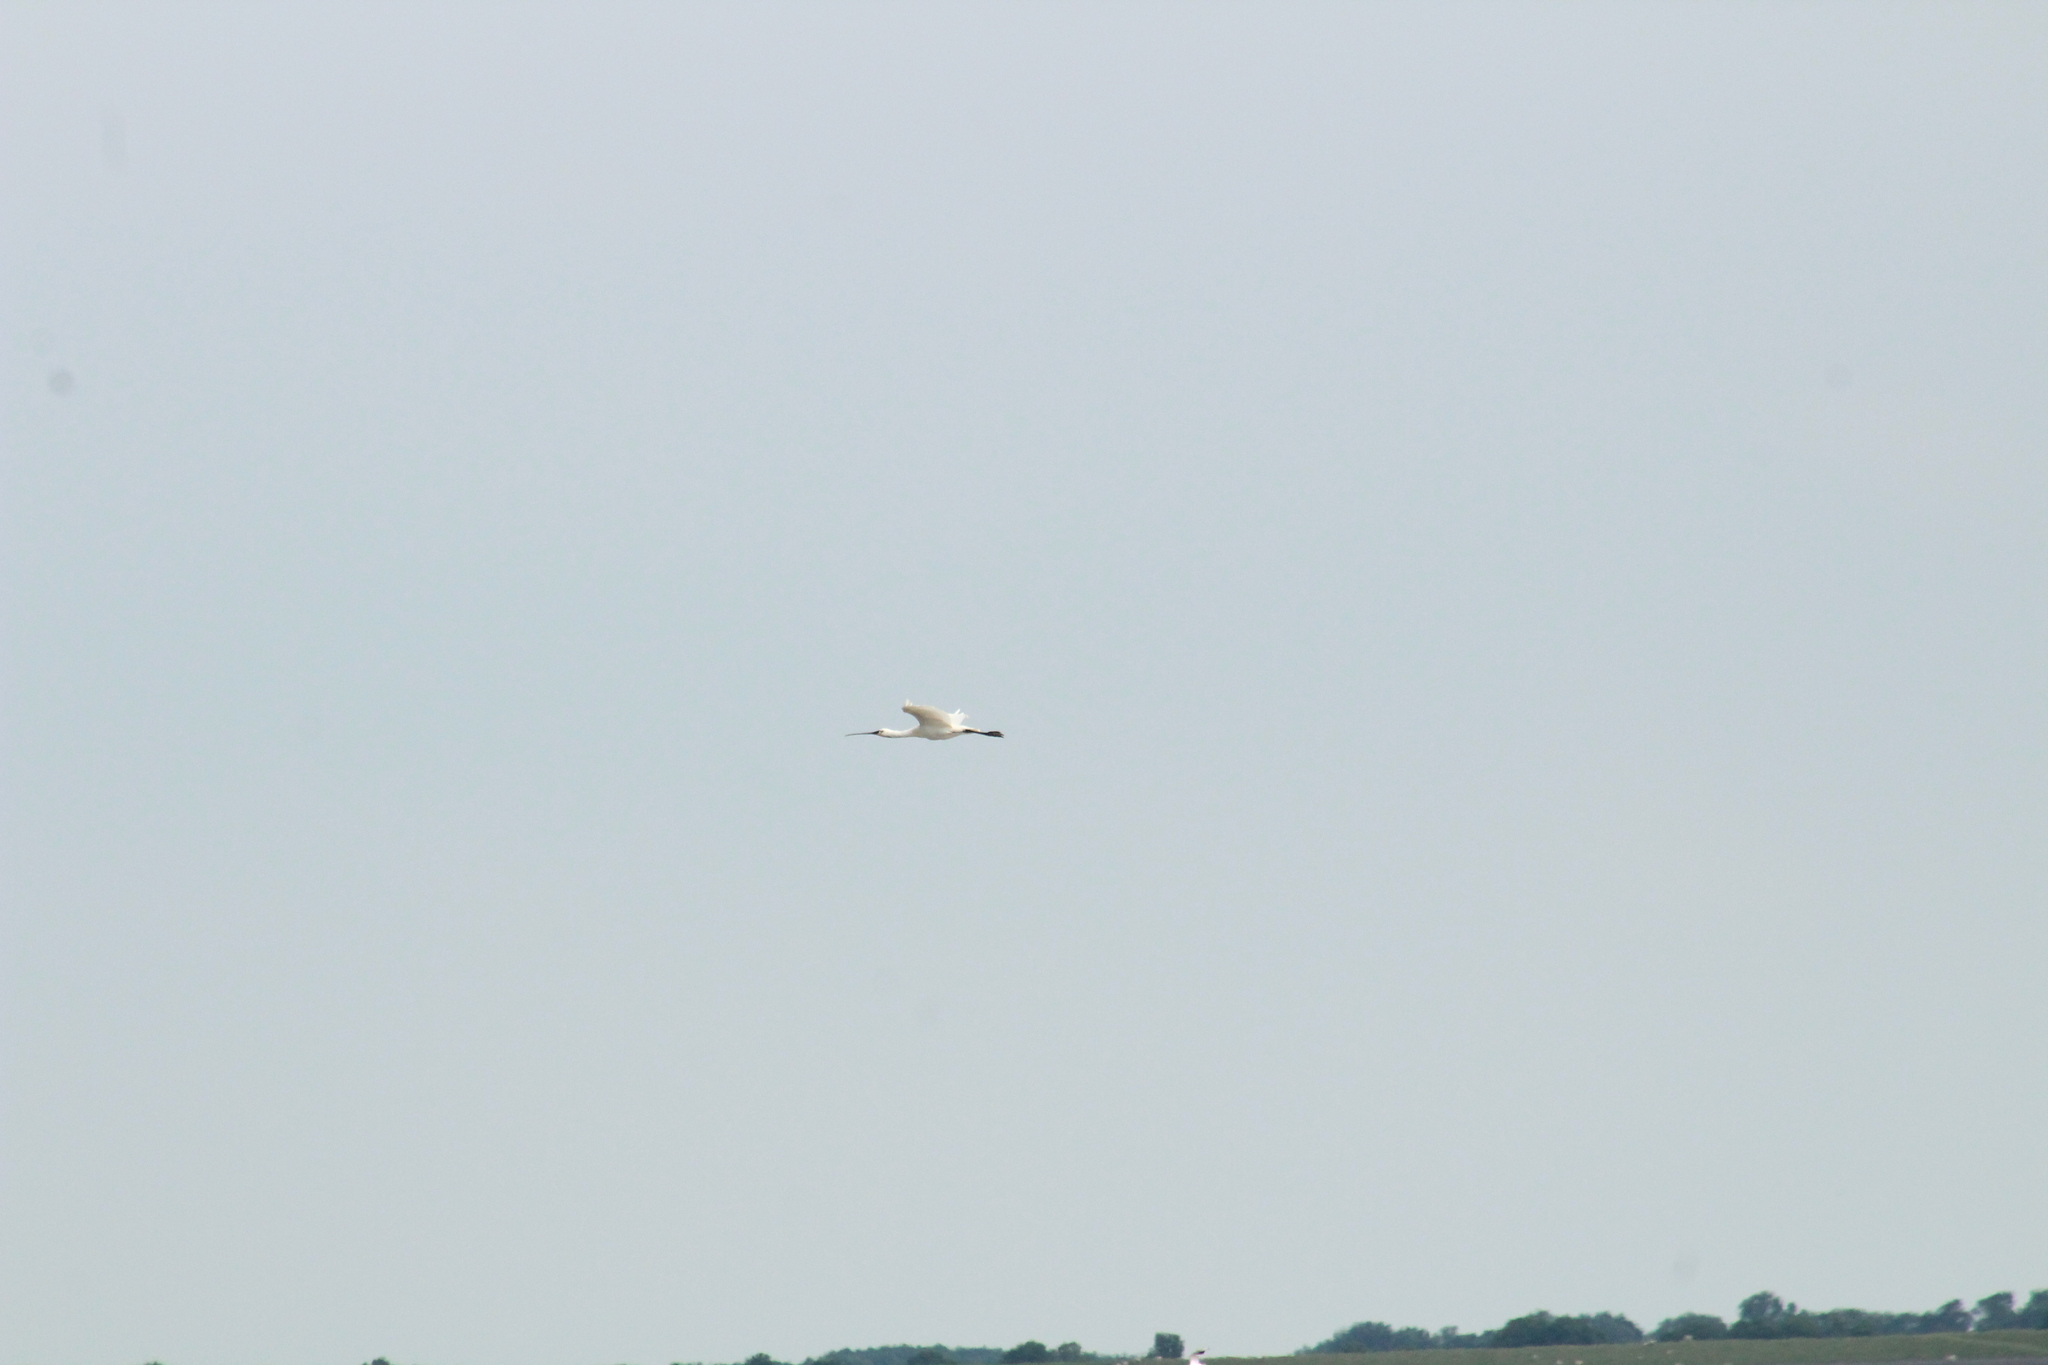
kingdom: Animalia
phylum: Chordata
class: Aves
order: Pelecaniformes
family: Threskiornithidae
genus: Platalea
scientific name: Platalea leucorodia
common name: Eurasian spoonbill
